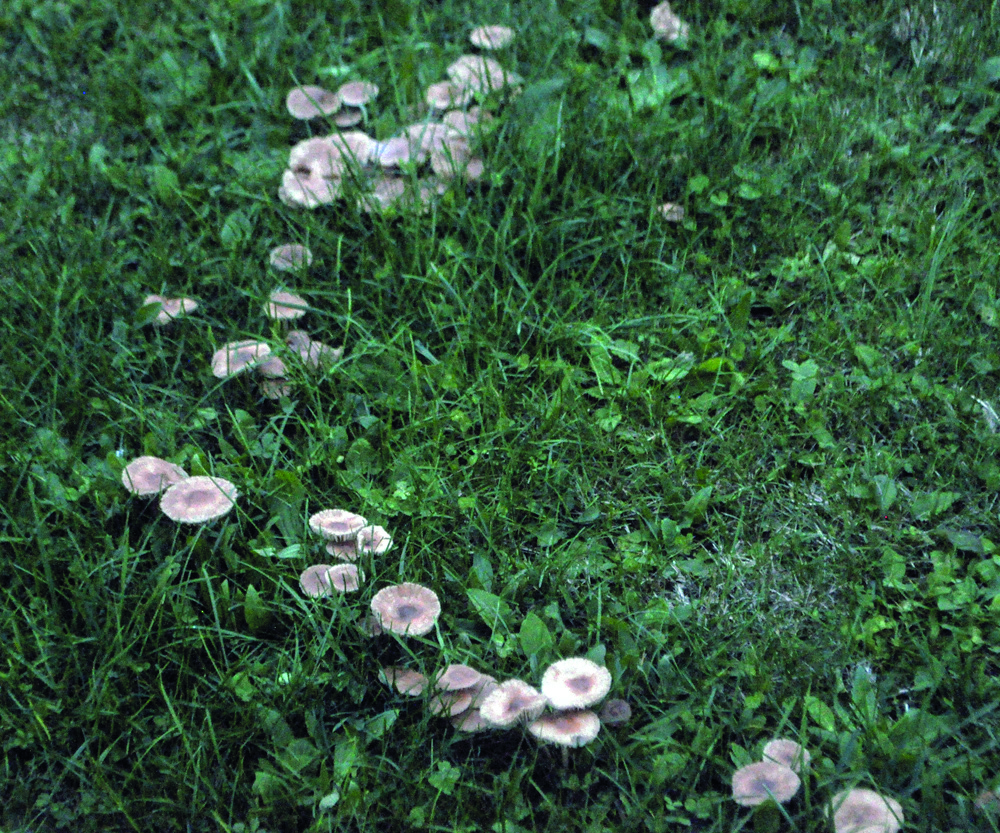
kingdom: Fungi
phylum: Basidiomycota
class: Agaricomycetes
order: Agaricales
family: Marasmiaceae
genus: Marasmius
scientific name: Marasmius oreades
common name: Fairy ring champignon
